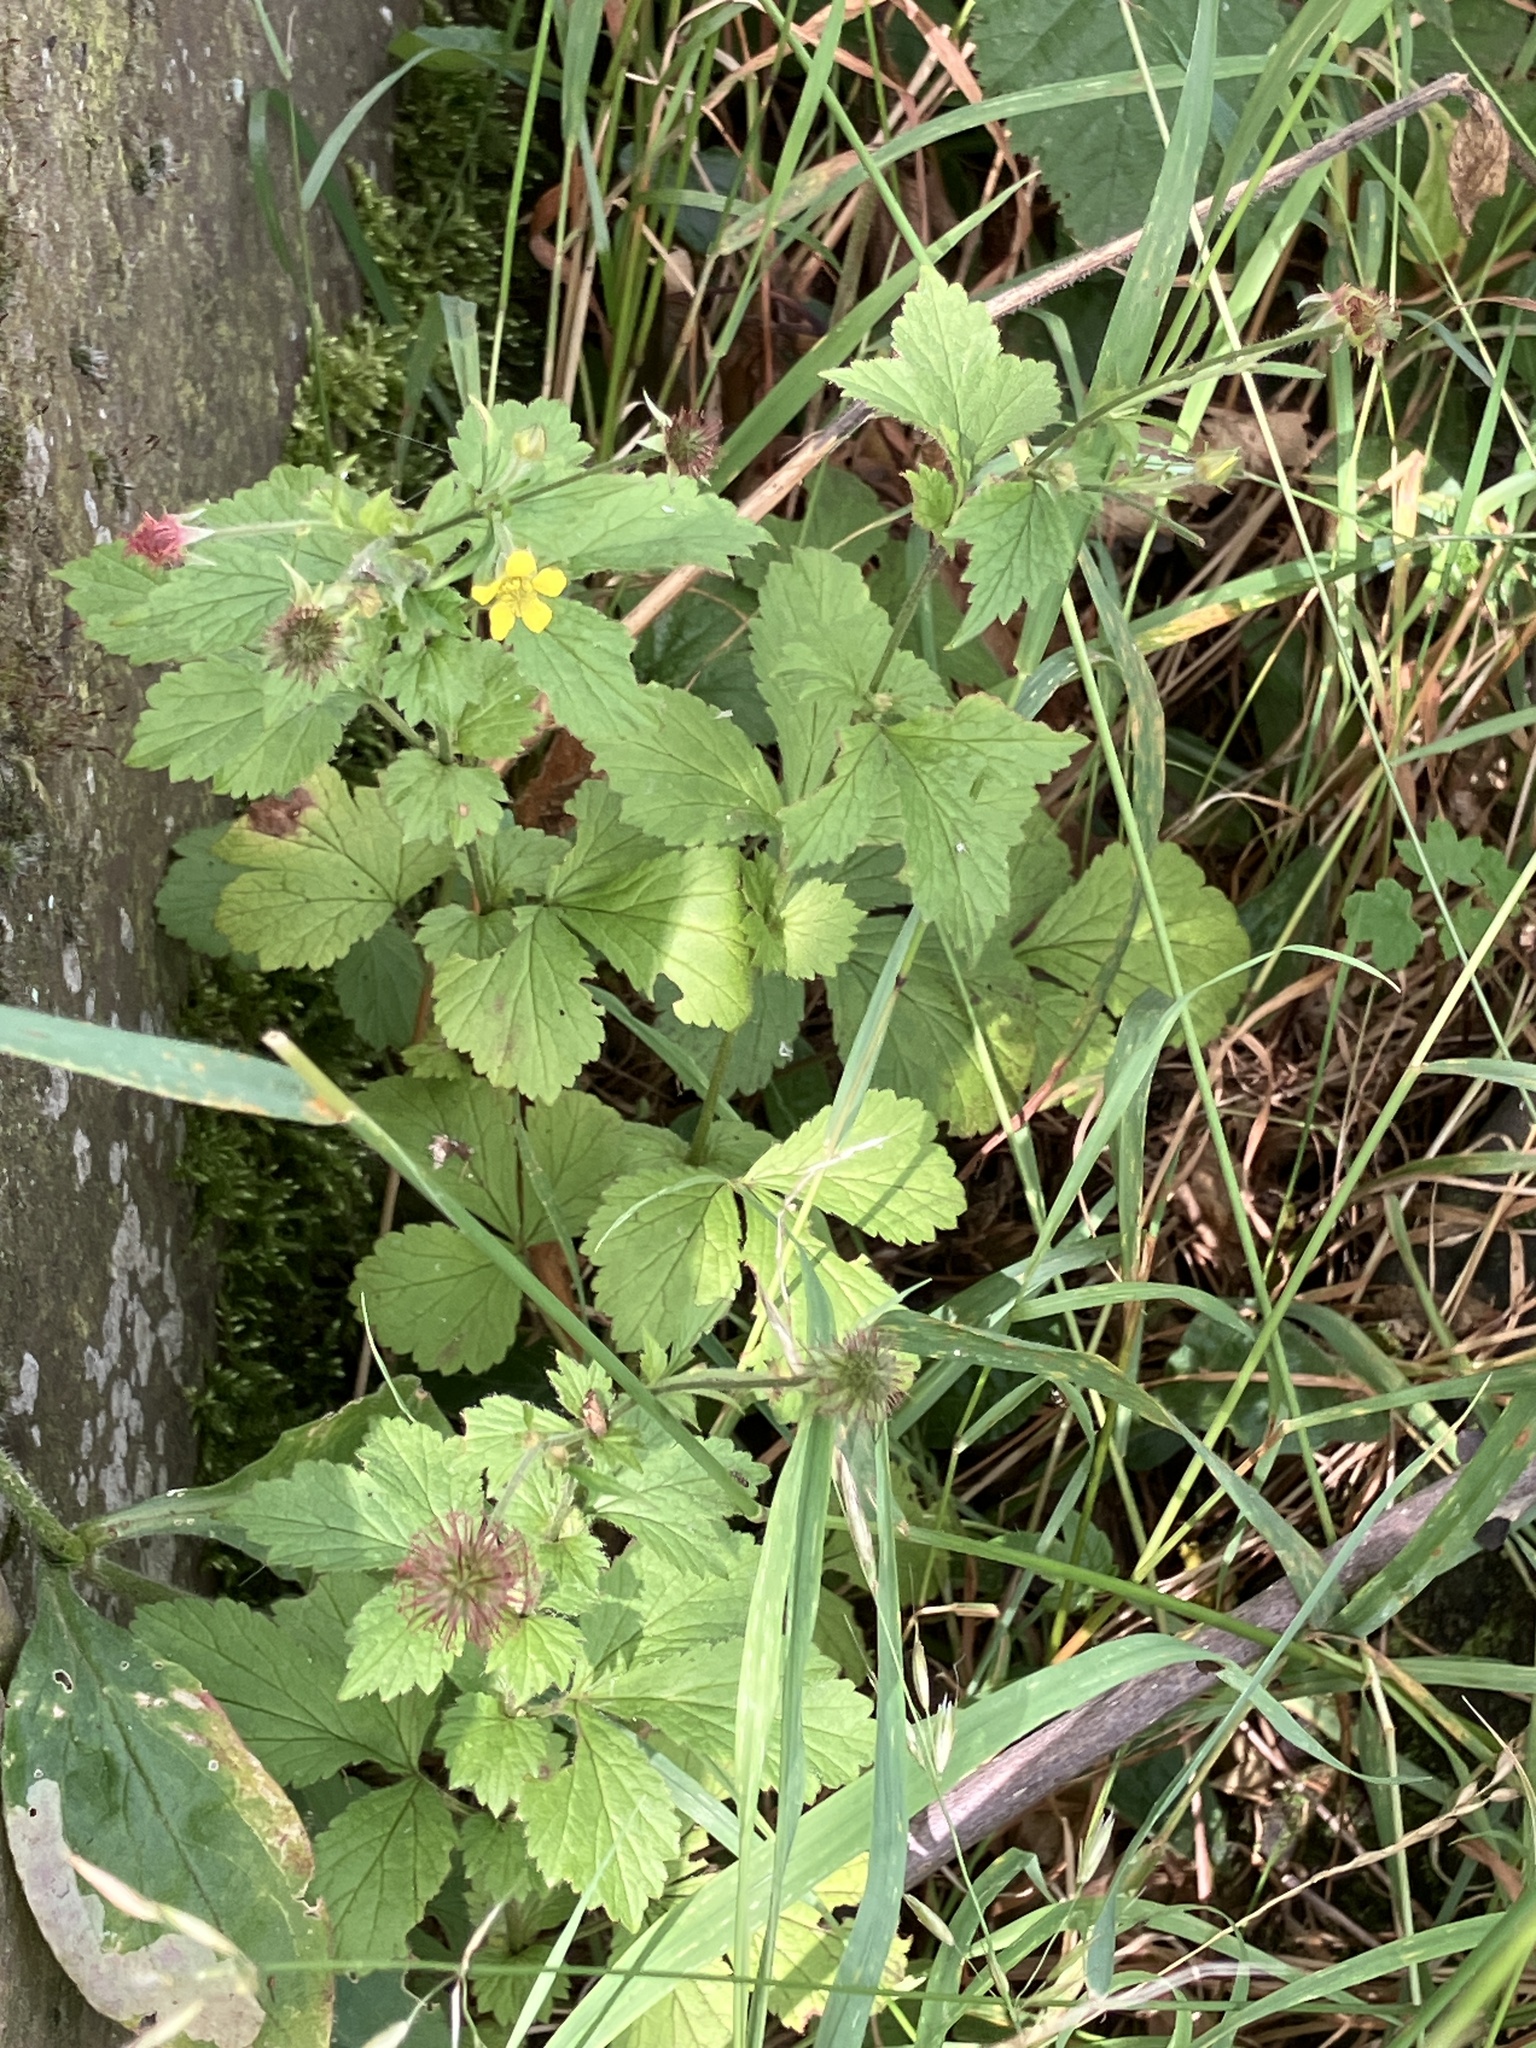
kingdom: Plantae
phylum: Tracheophyta
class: Magnoliopsida
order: Rosales
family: Rosaceae
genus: Geum
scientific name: Geum urbanum
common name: Wood avens
